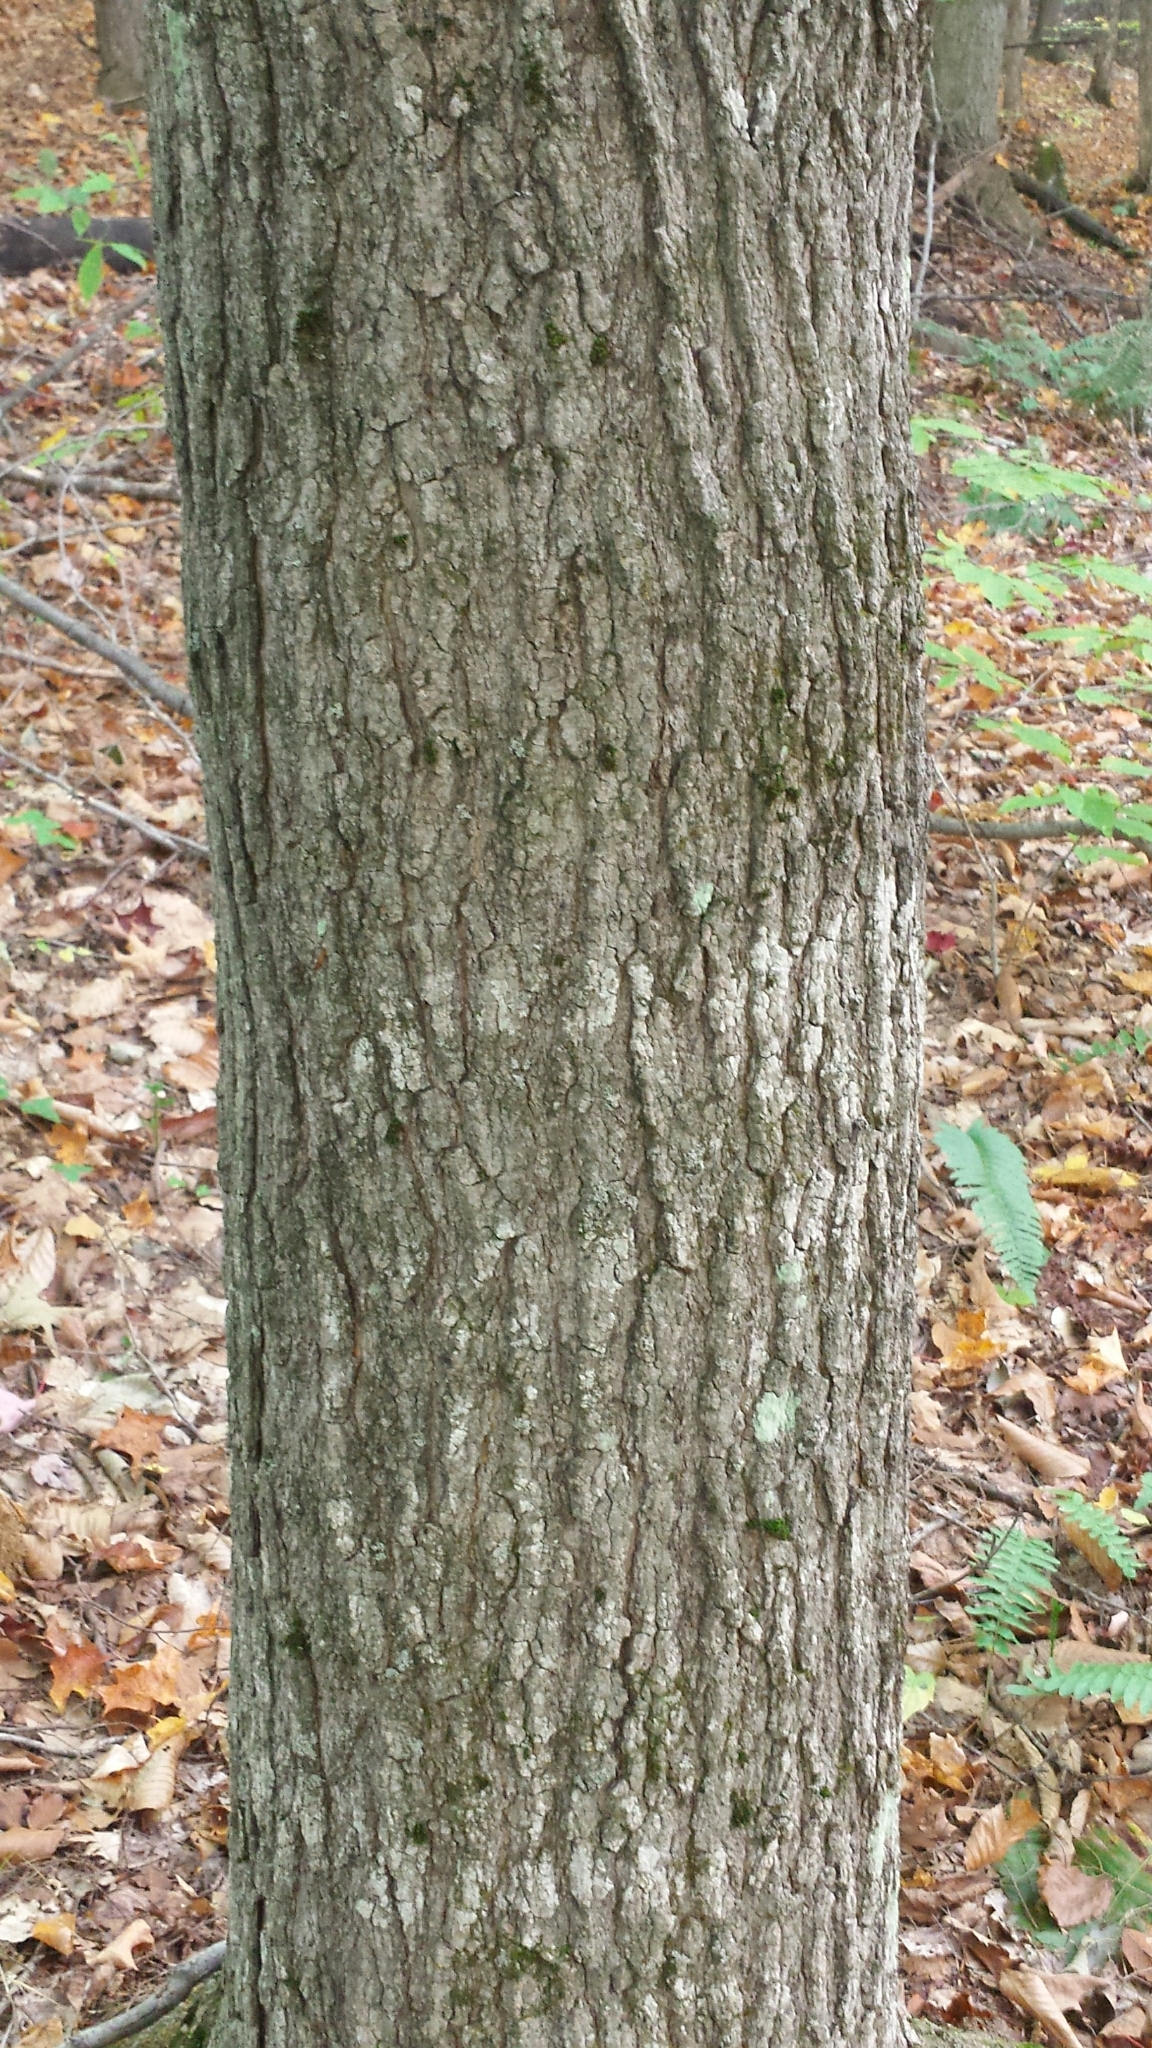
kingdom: Plantae
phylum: Tracheophyta
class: Magnoliopsida
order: Sapindales
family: Sapindaceae
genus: Acer
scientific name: Acer saccharum
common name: Sugar maple
